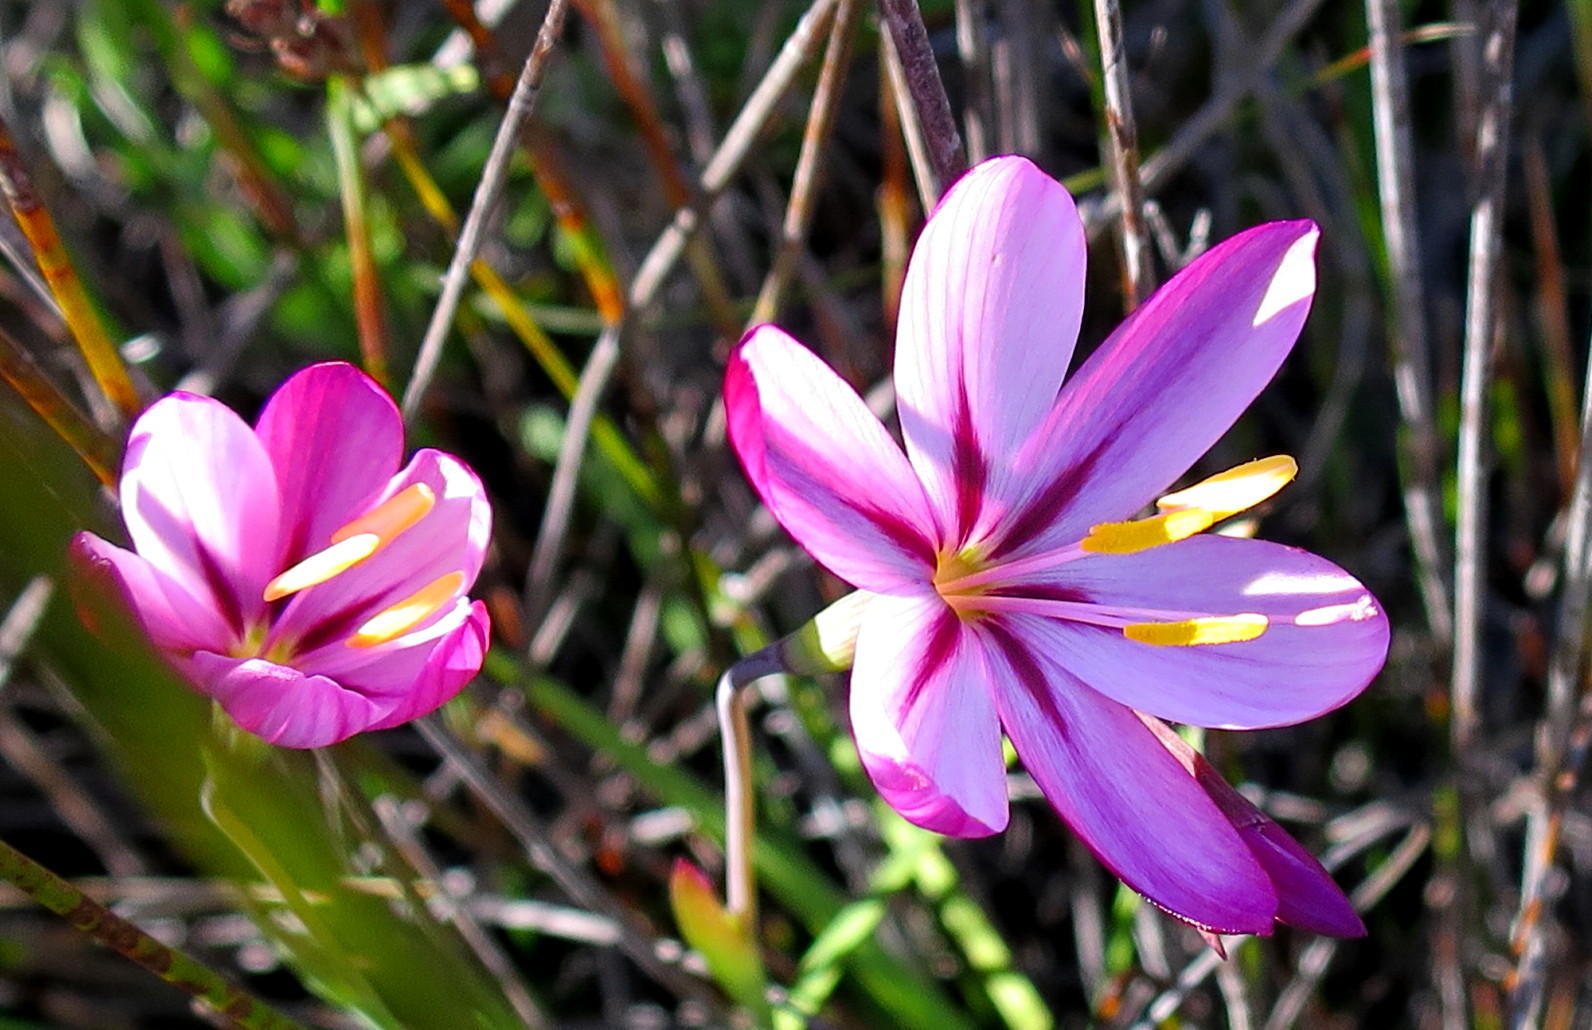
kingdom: Plantae
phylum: Tracheophyta
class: Liliopsida
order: Asparagales
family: Iridaceae
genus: Geissorhiza
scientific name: Geissorhiza elsiae
